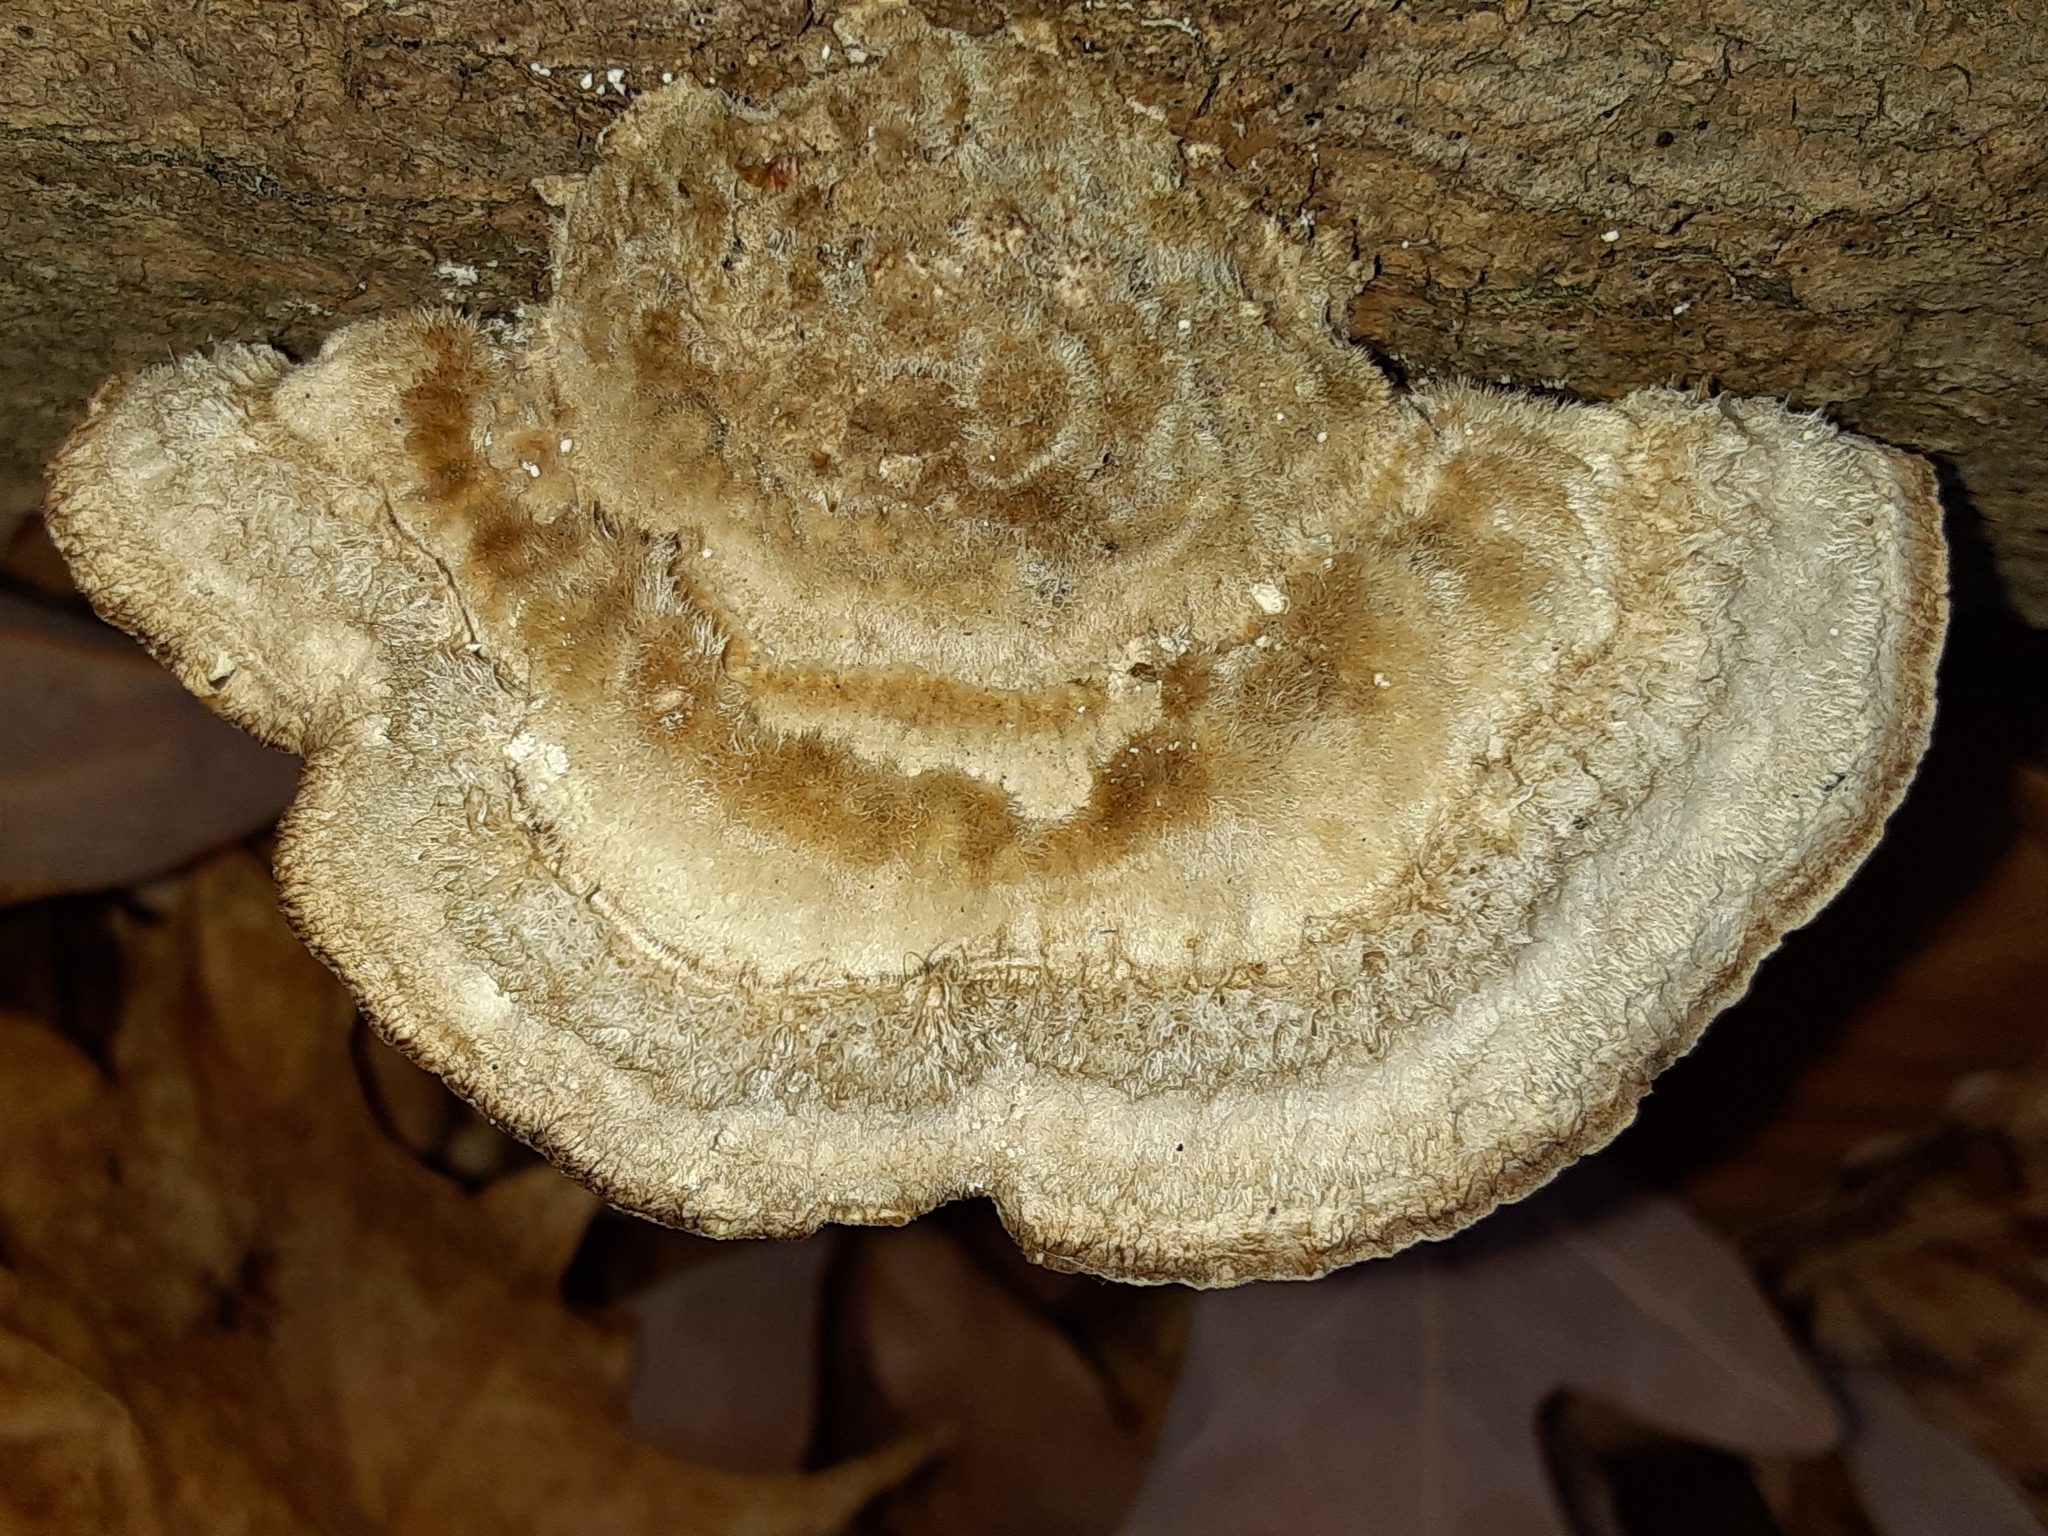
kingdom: Fungi
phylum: Basidiomycota
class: Agaricomycetes
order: Polyporales
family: Polyporaceae
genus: Trametes
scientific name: Trametes hirsuta
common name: Hairy bracket
